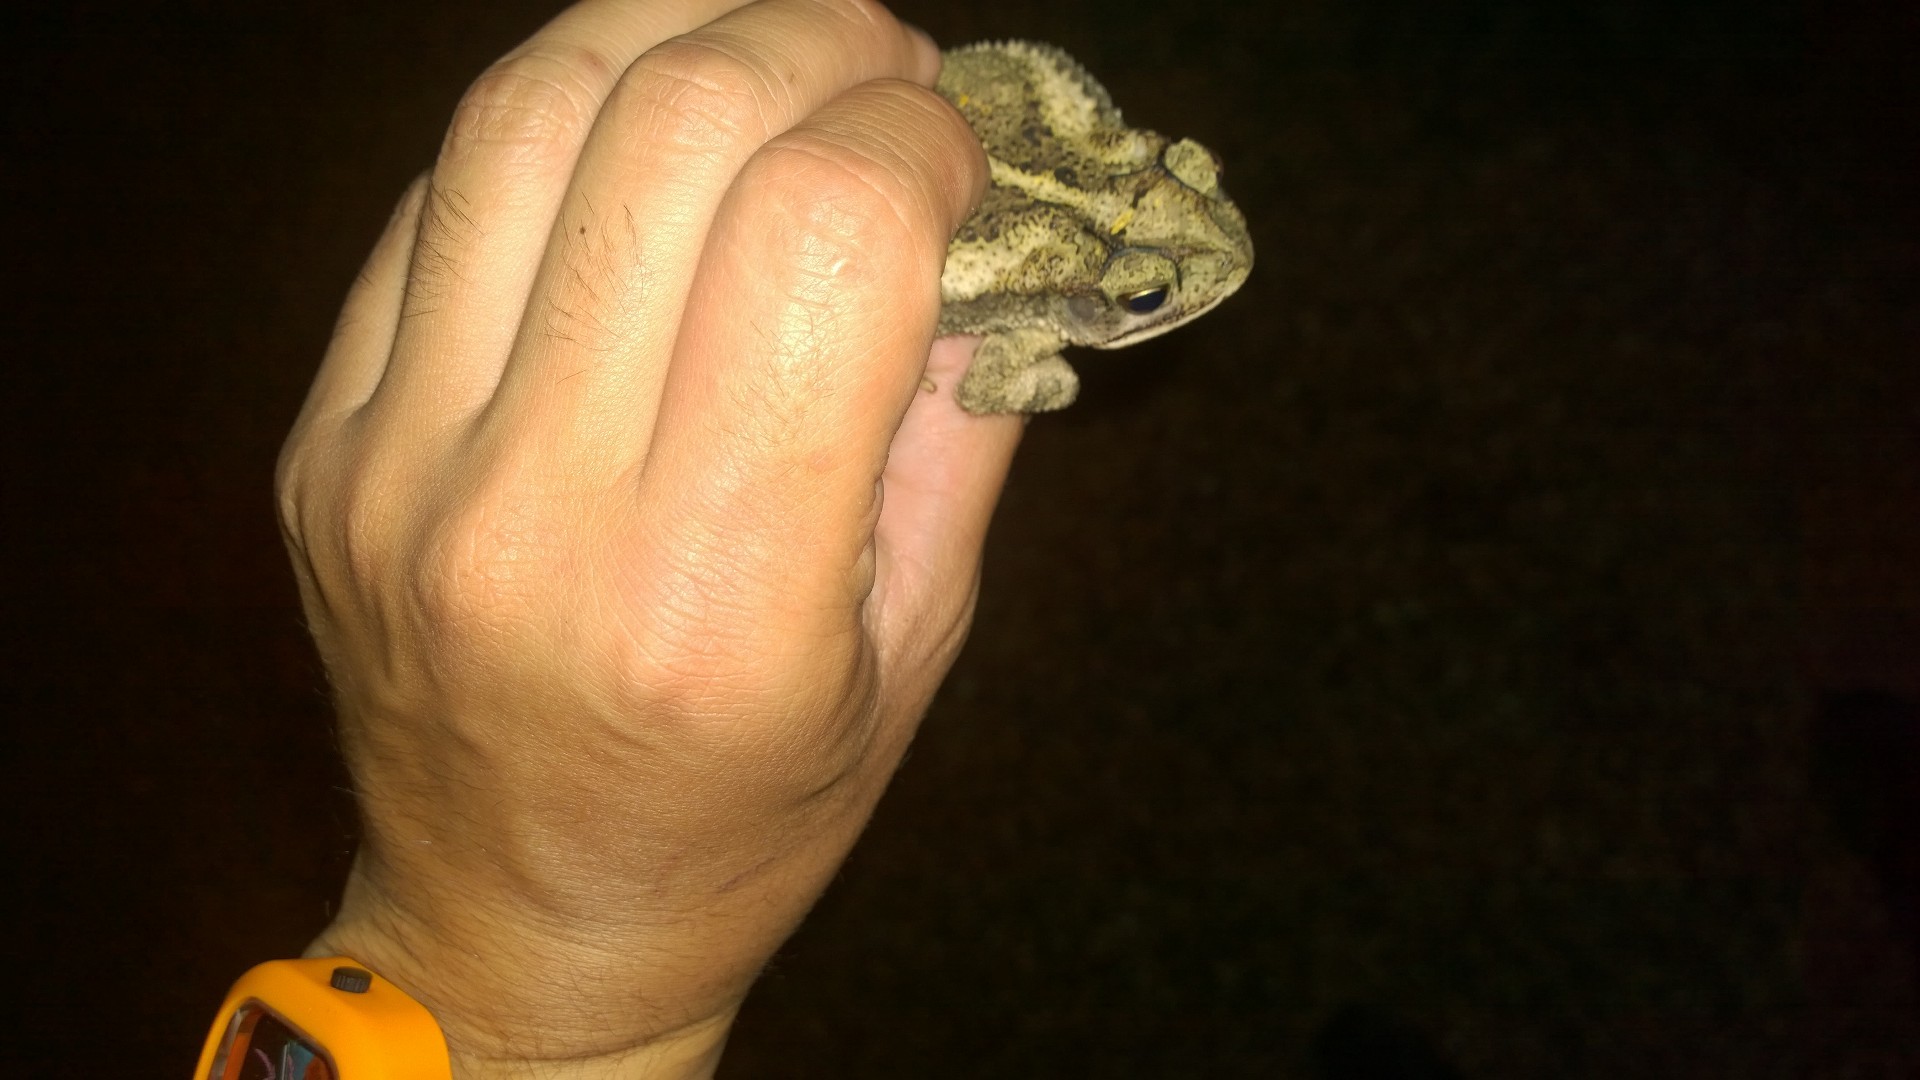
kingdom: Animalia
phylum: Chordata
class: Amphibia
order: Anura
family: Bufonidae
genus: Incilius
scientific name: Incilius nebulifer
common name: Gulf coast toad
